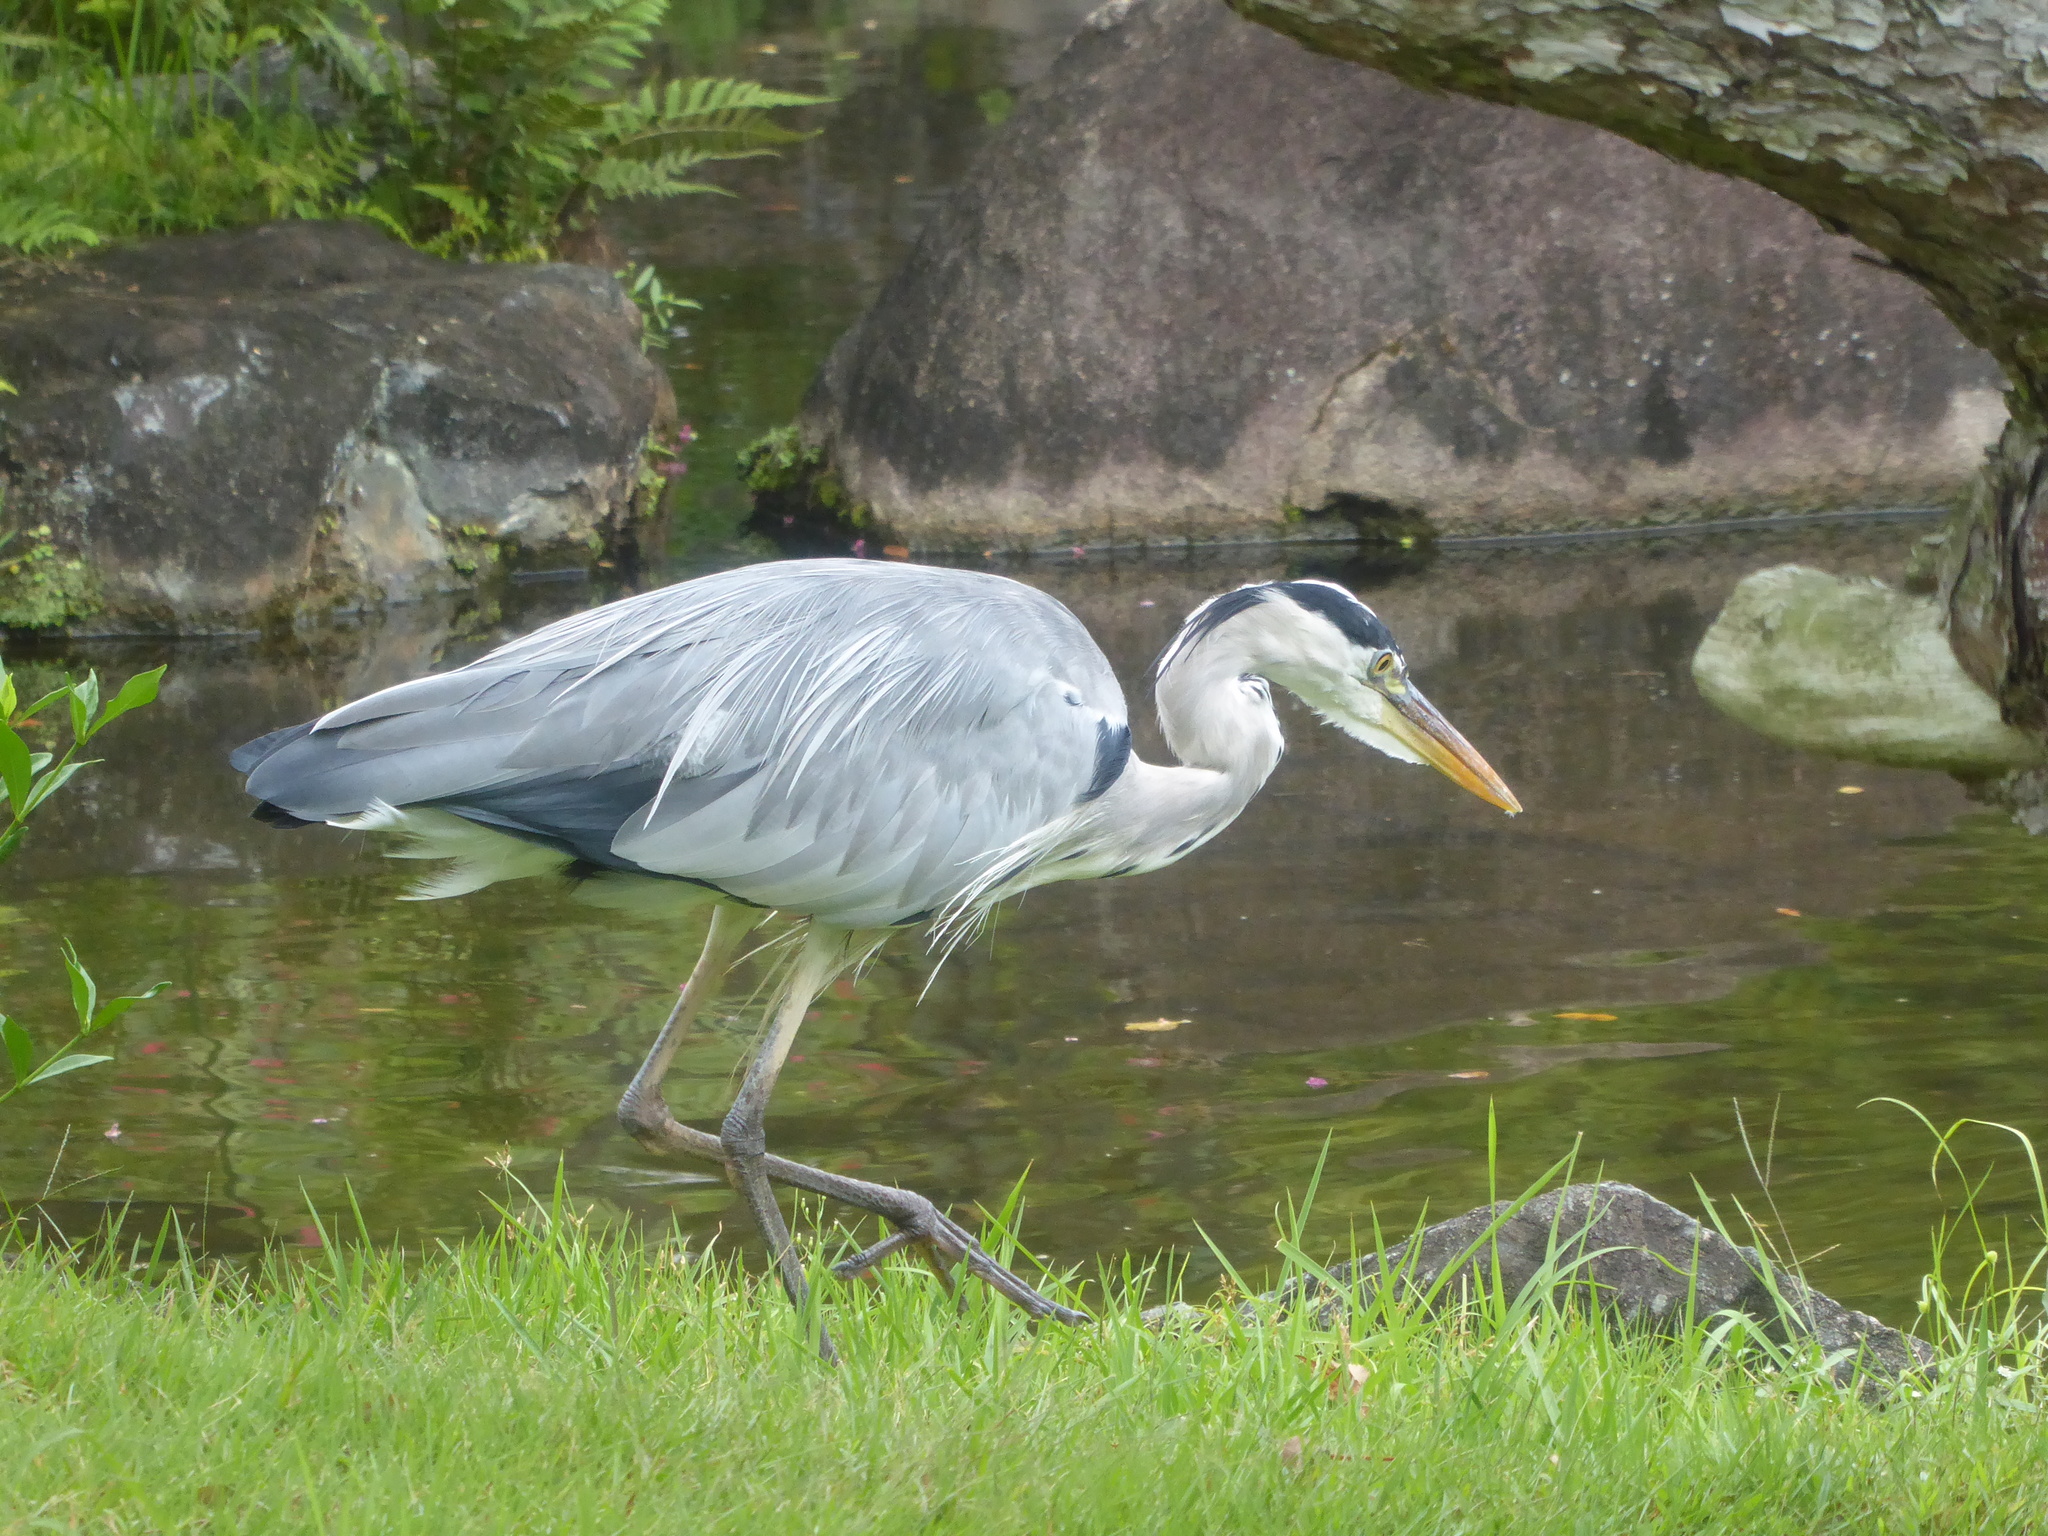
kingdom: Animalia
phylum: Chordata
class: Aves
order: Pelecaniformes
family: Ardeidae
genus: Ardea
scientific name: Ardea cinerea
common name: Grey heron
